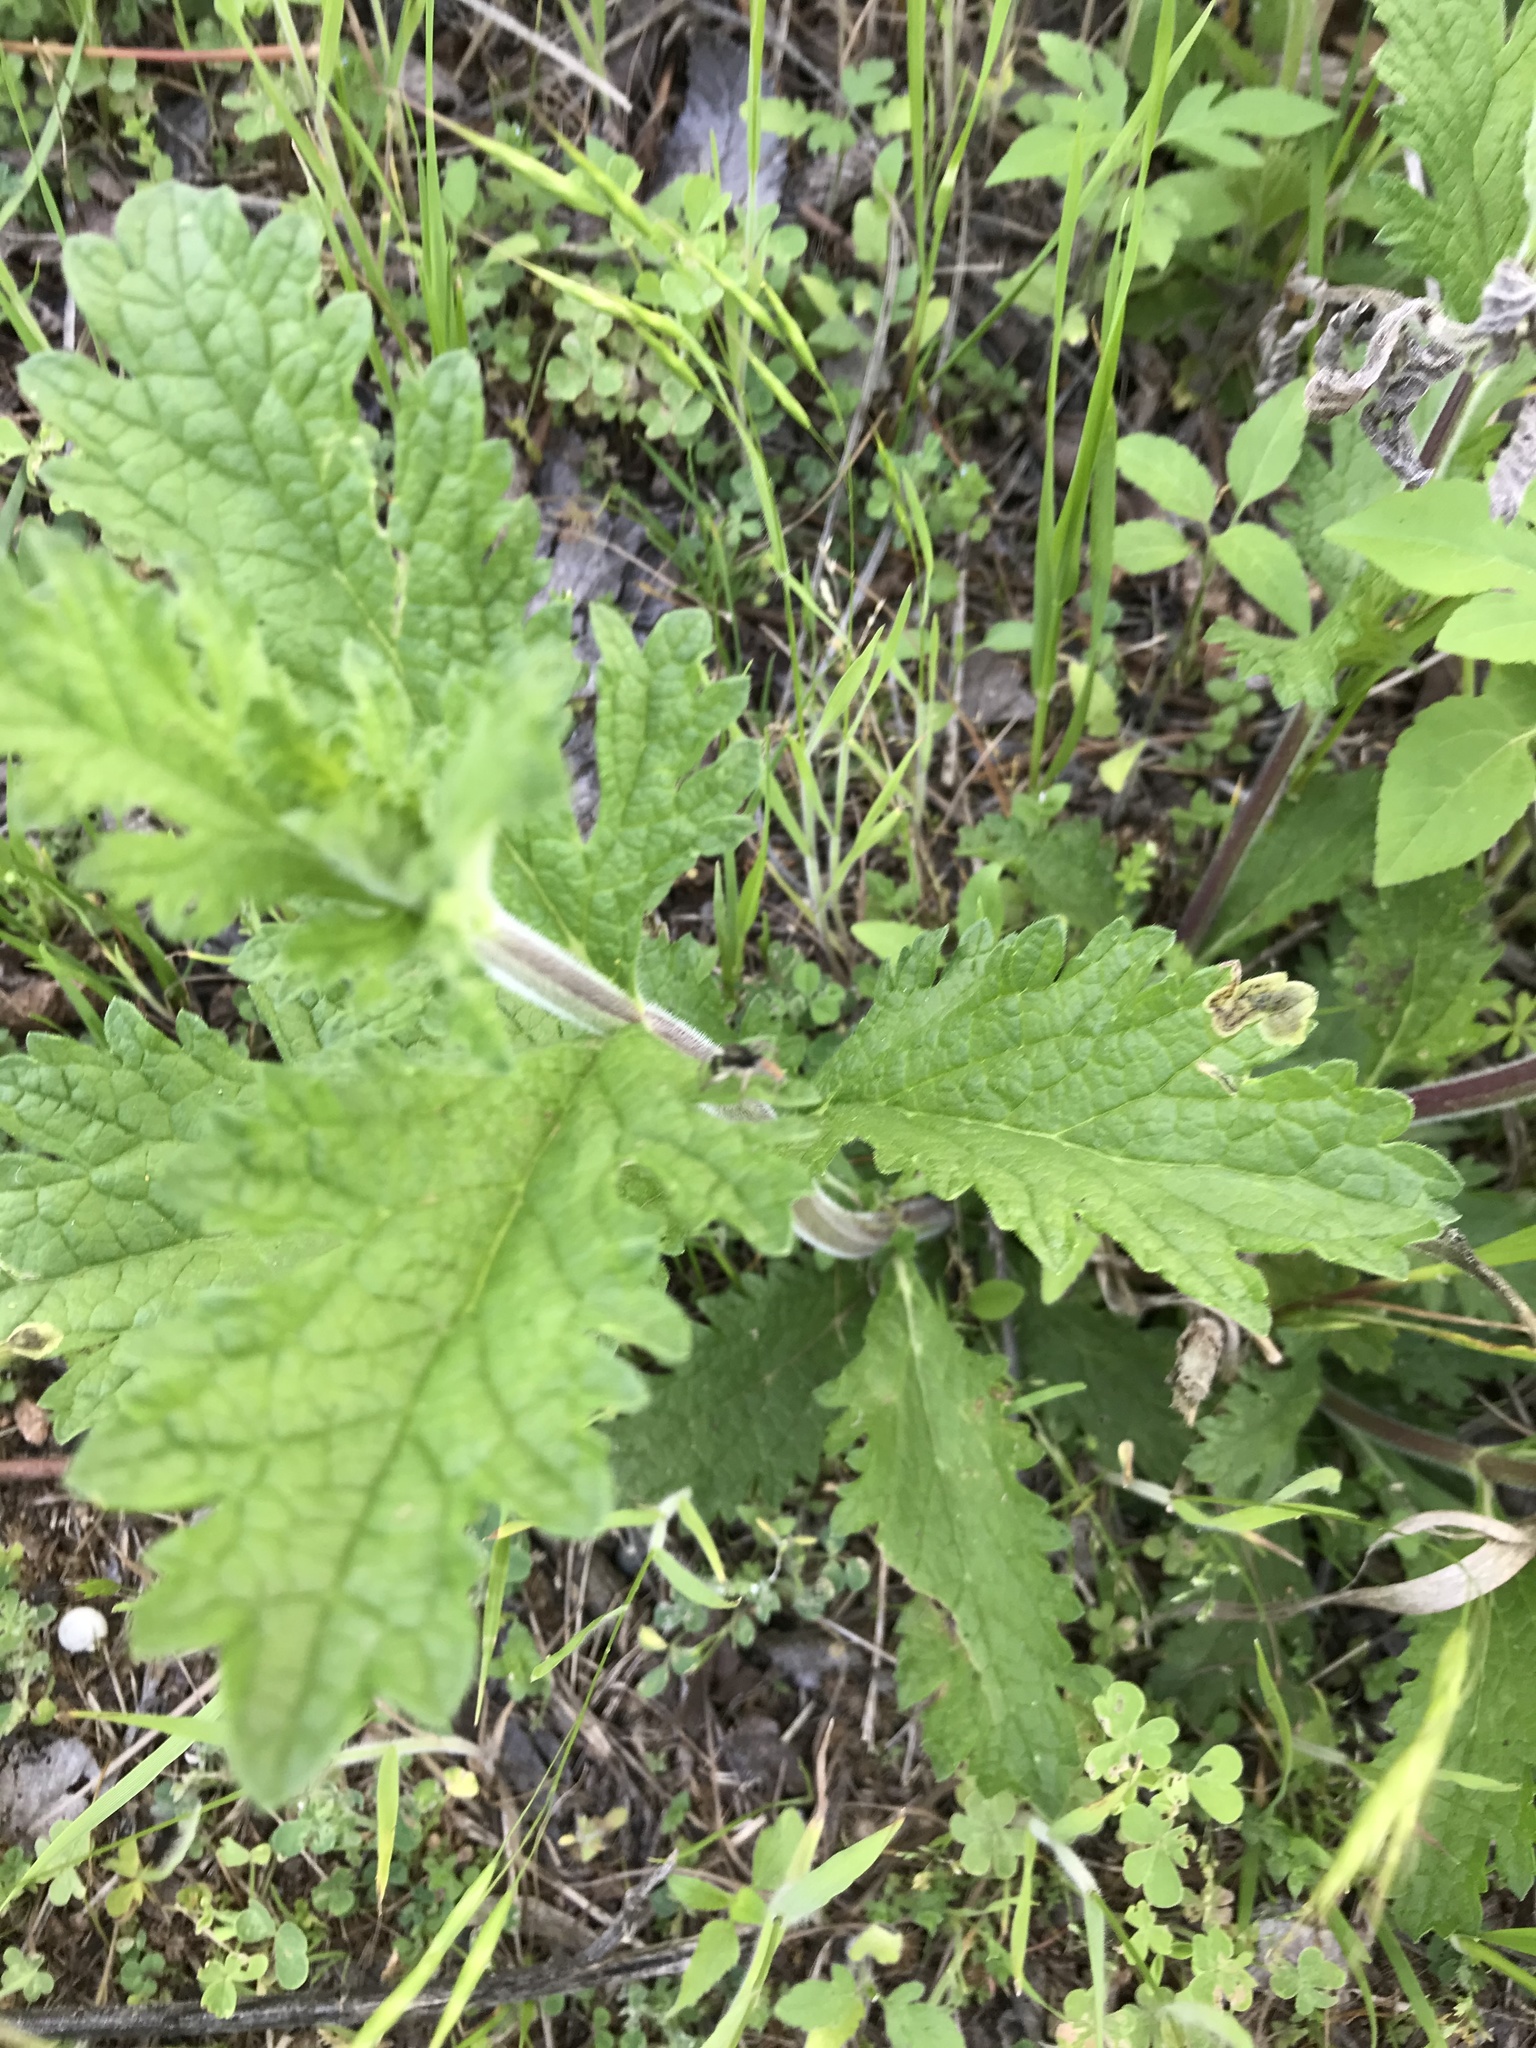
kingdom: Animalia
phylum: Arthropoda
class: Arachnida
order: Araneae
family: Salticidae
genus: Maevia
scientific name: Maevia inclemens
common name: Dimorphic jumper
